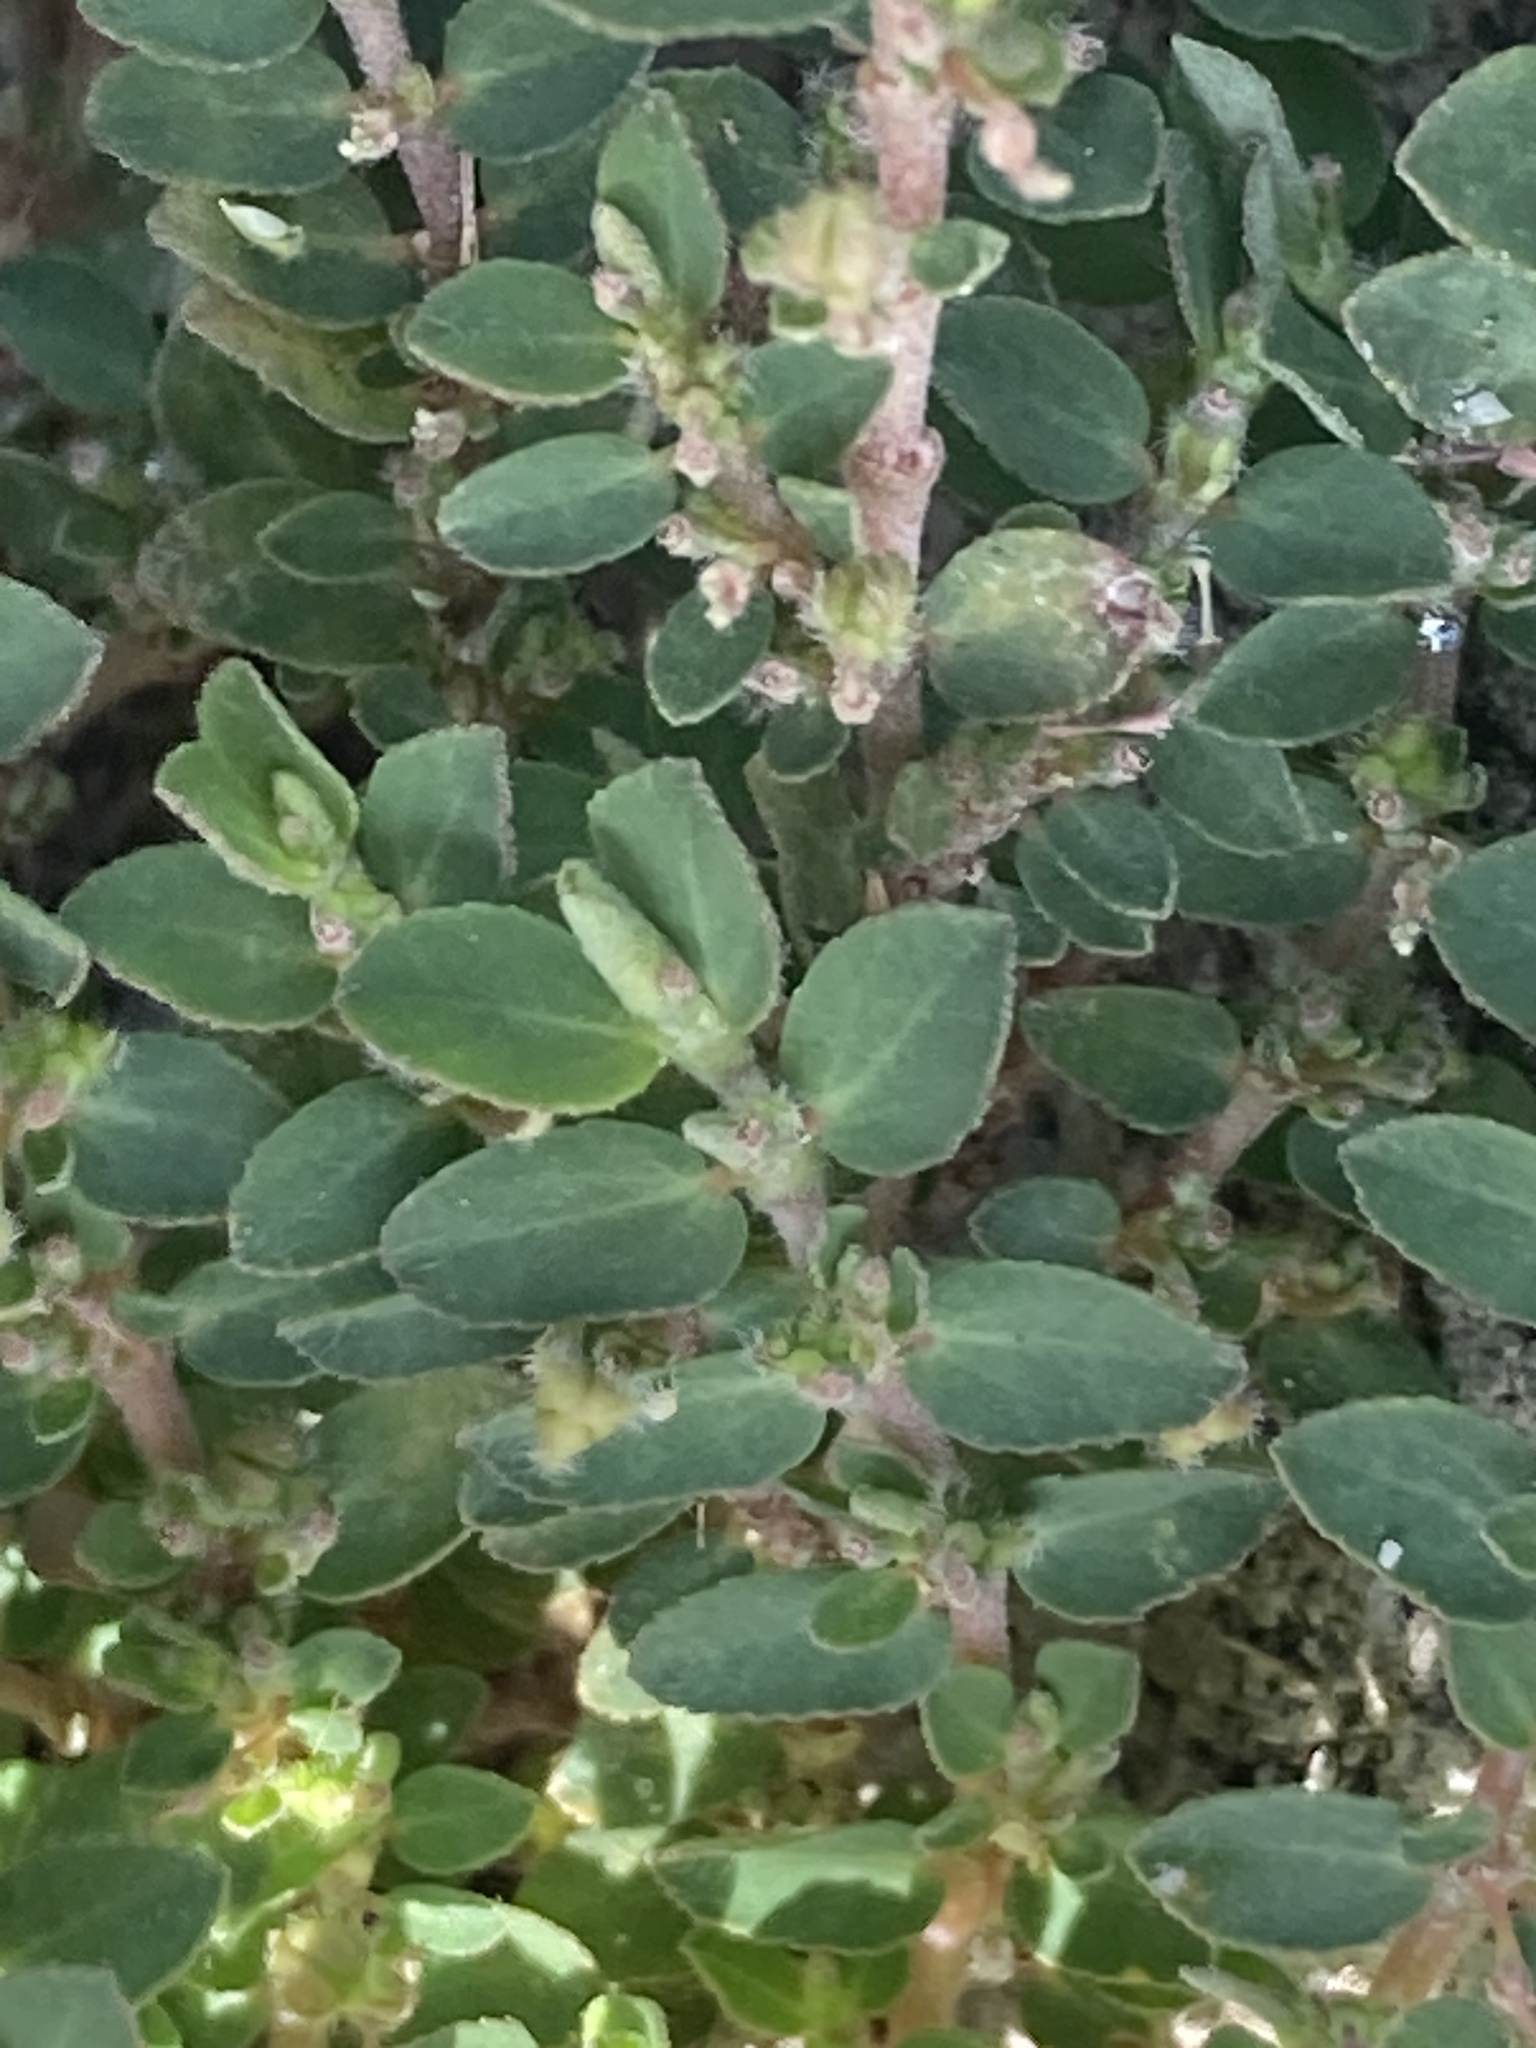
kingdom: Plantae
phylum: Tracheophyta
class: Magnoliopsida
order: Malpighiales
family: Euphorbiaceae
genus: Euphorbia
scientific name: Euphorbia prostrata
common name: Prostrate sandmat
